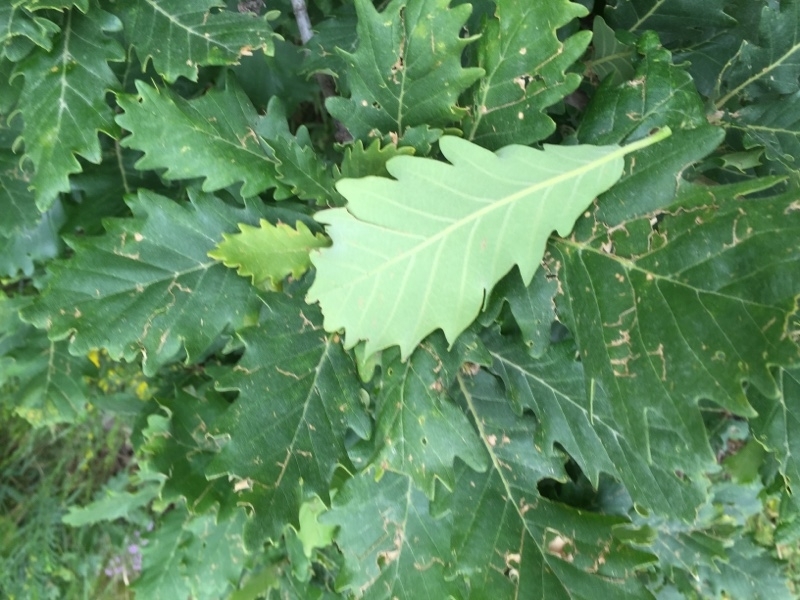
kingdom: Plantae
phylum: Tracheophyta
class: Magnoliopsida
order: Fagales
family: Fagaceae
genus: Quercus
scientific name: Quercus macranthera
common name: Caucasian oak
